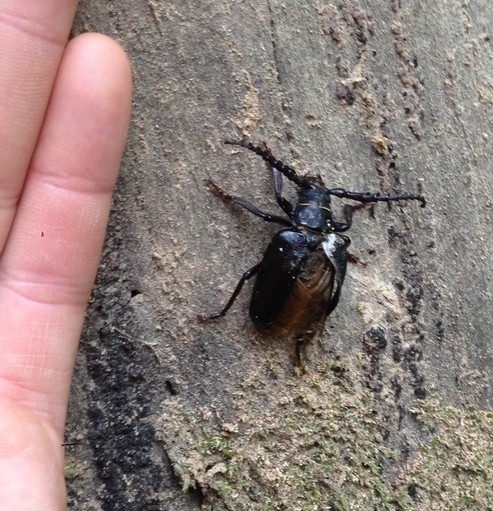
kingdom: Animalia
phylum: Arthropoda
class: Insecta
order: Coleoptera
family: Cerambycidae
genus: Prionus
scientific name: Prionus coriarius
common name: Tanner beetle
